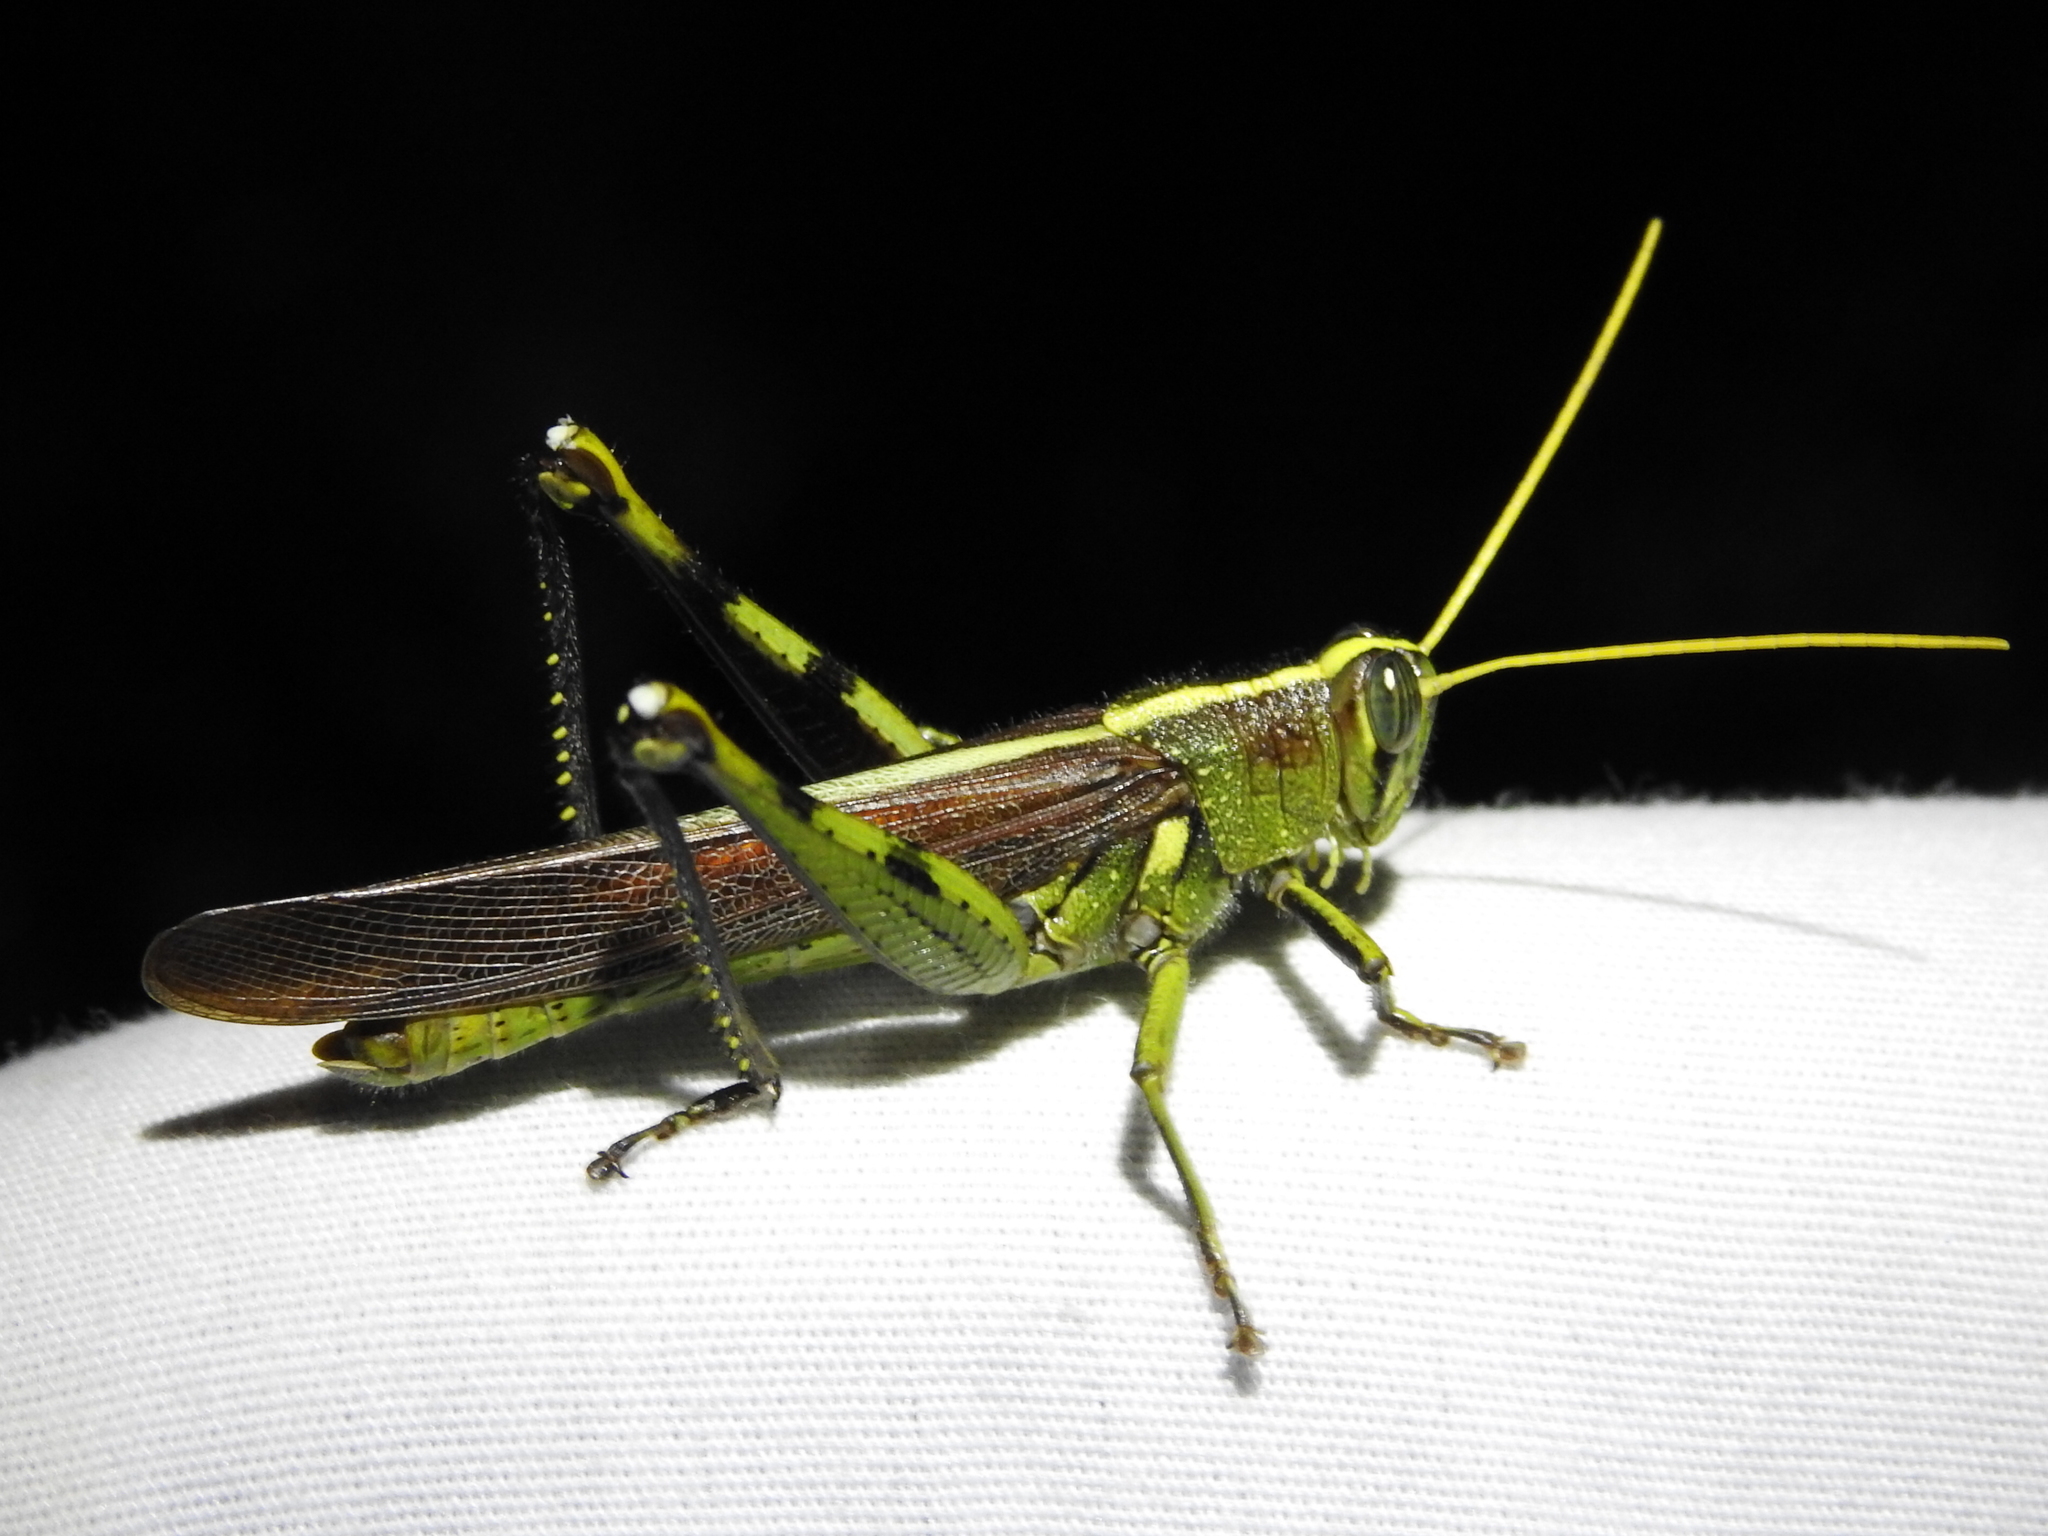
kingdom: Animalia
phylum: Arthropoda
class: Insecta
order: Orthoptera
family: Acrididae
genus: Schistocerca
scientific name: Schistocerca obscura
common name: Obscure bird grasshopper
